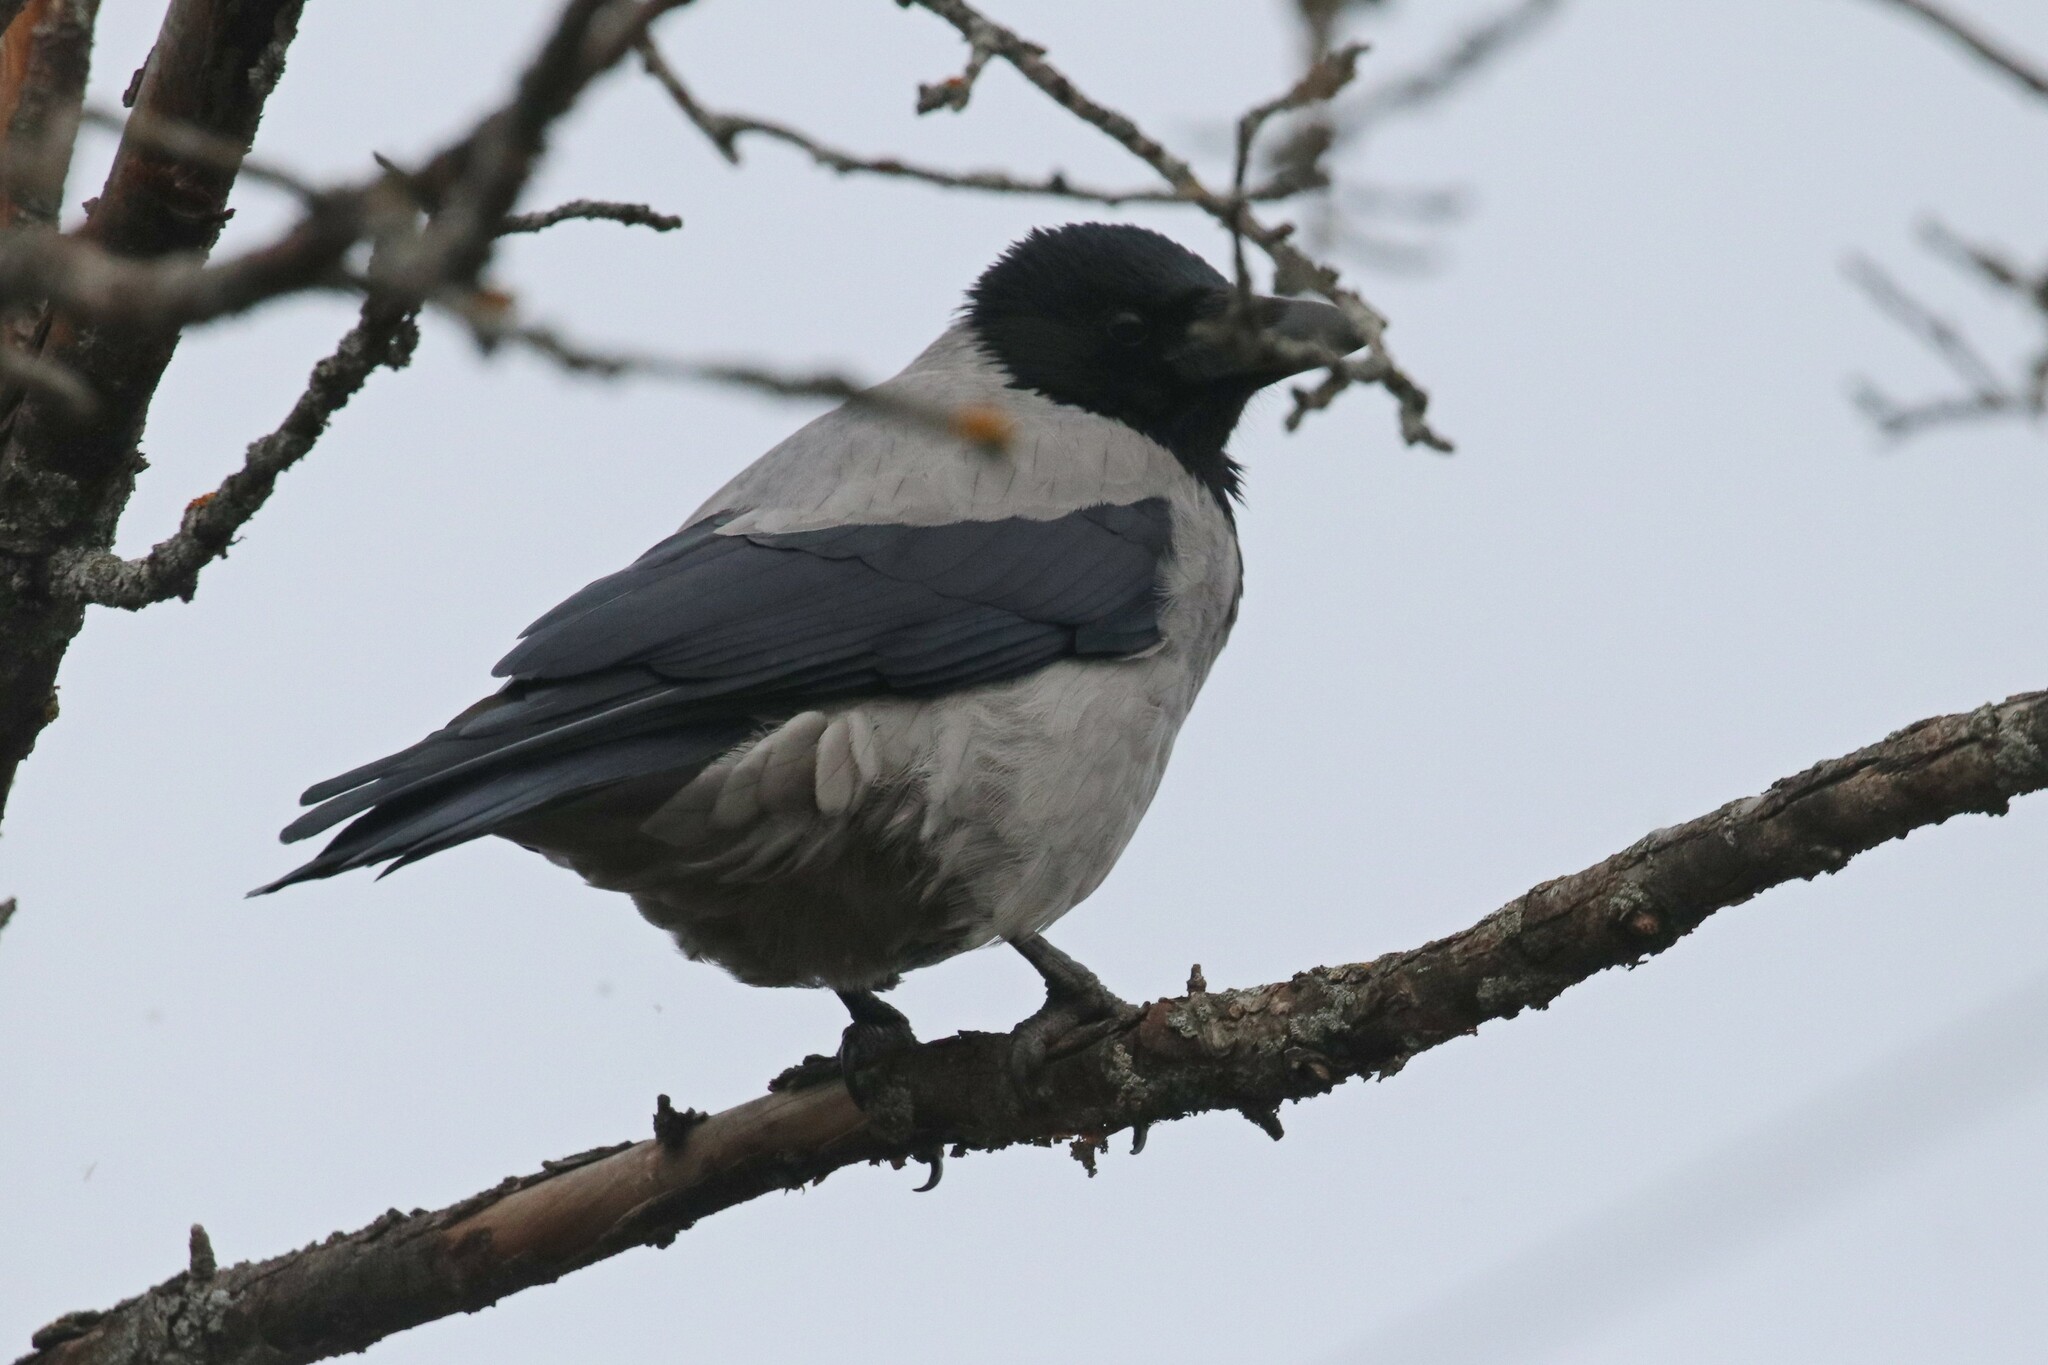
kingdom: Animalia
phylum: Chordata
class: Aves
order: Passeriformes
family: Corvidae
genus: Corvus
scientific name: Corvus cornix
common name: Hooded crow
